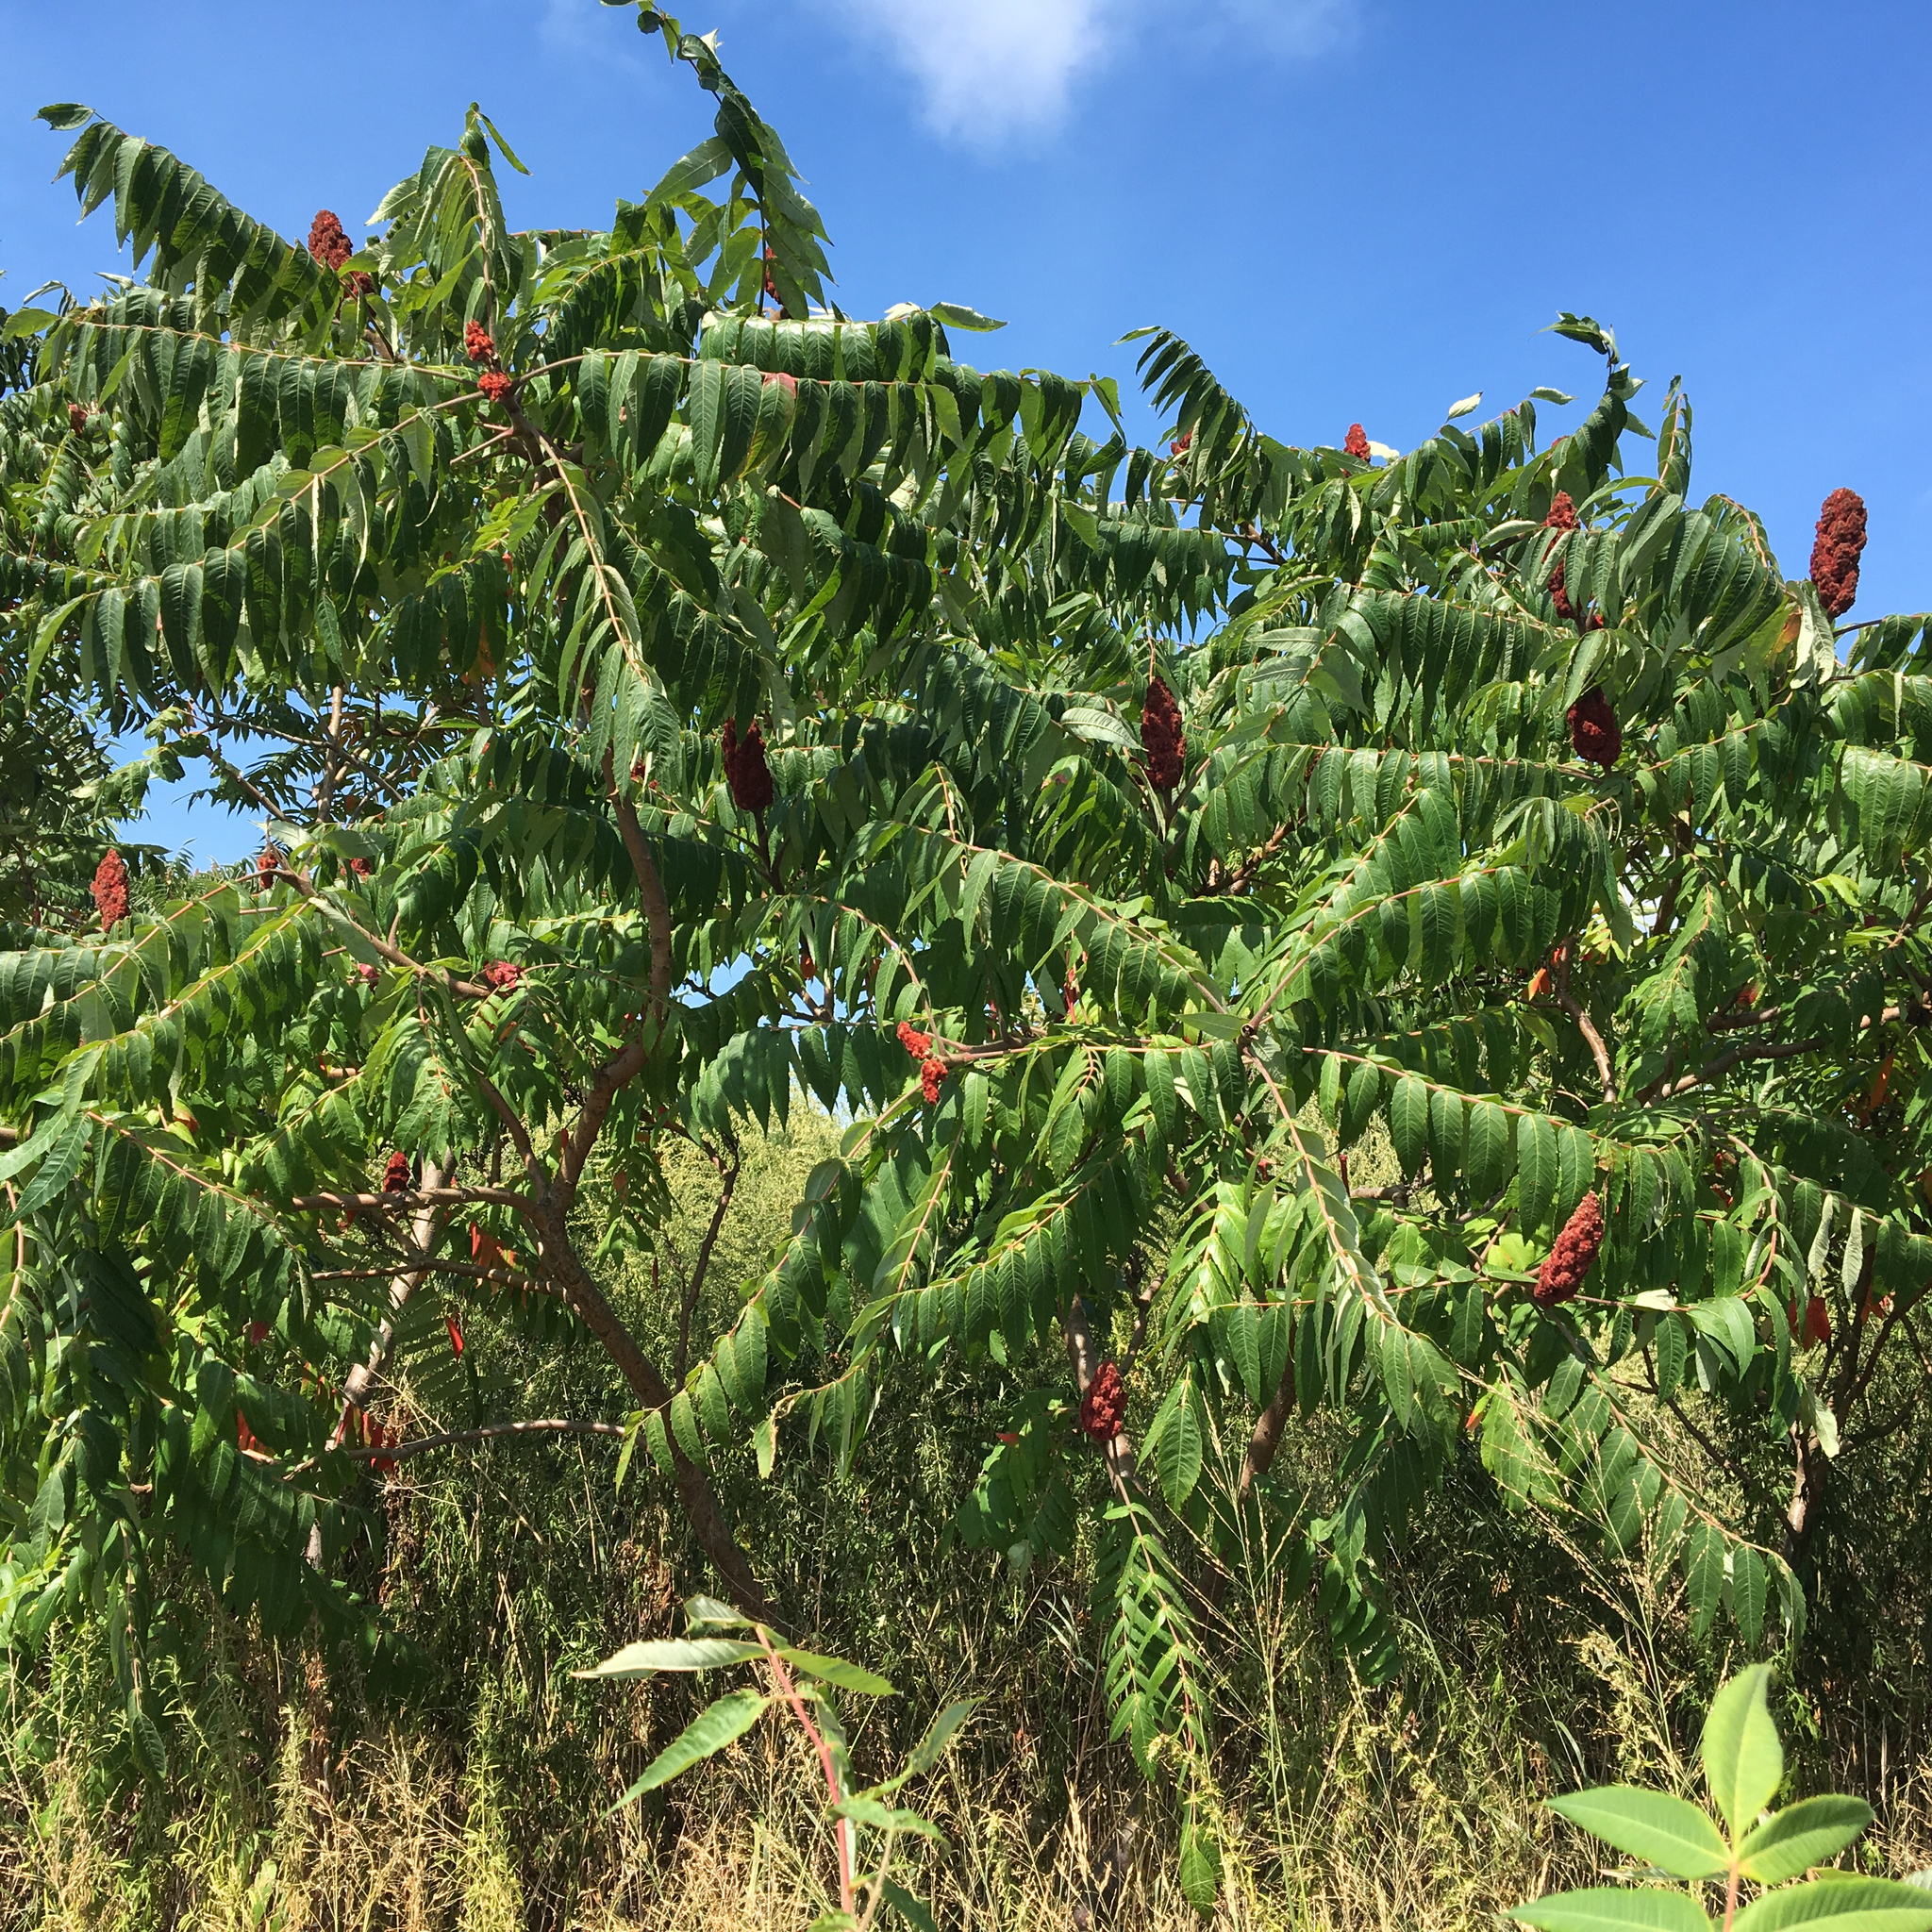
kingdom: Plantae
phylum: Tracheophyta
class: Magnoliopsida
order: Sapindales
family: Anacardiaceae
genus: Rhus
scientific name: Rhus typhina
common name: Staghorn sumac
